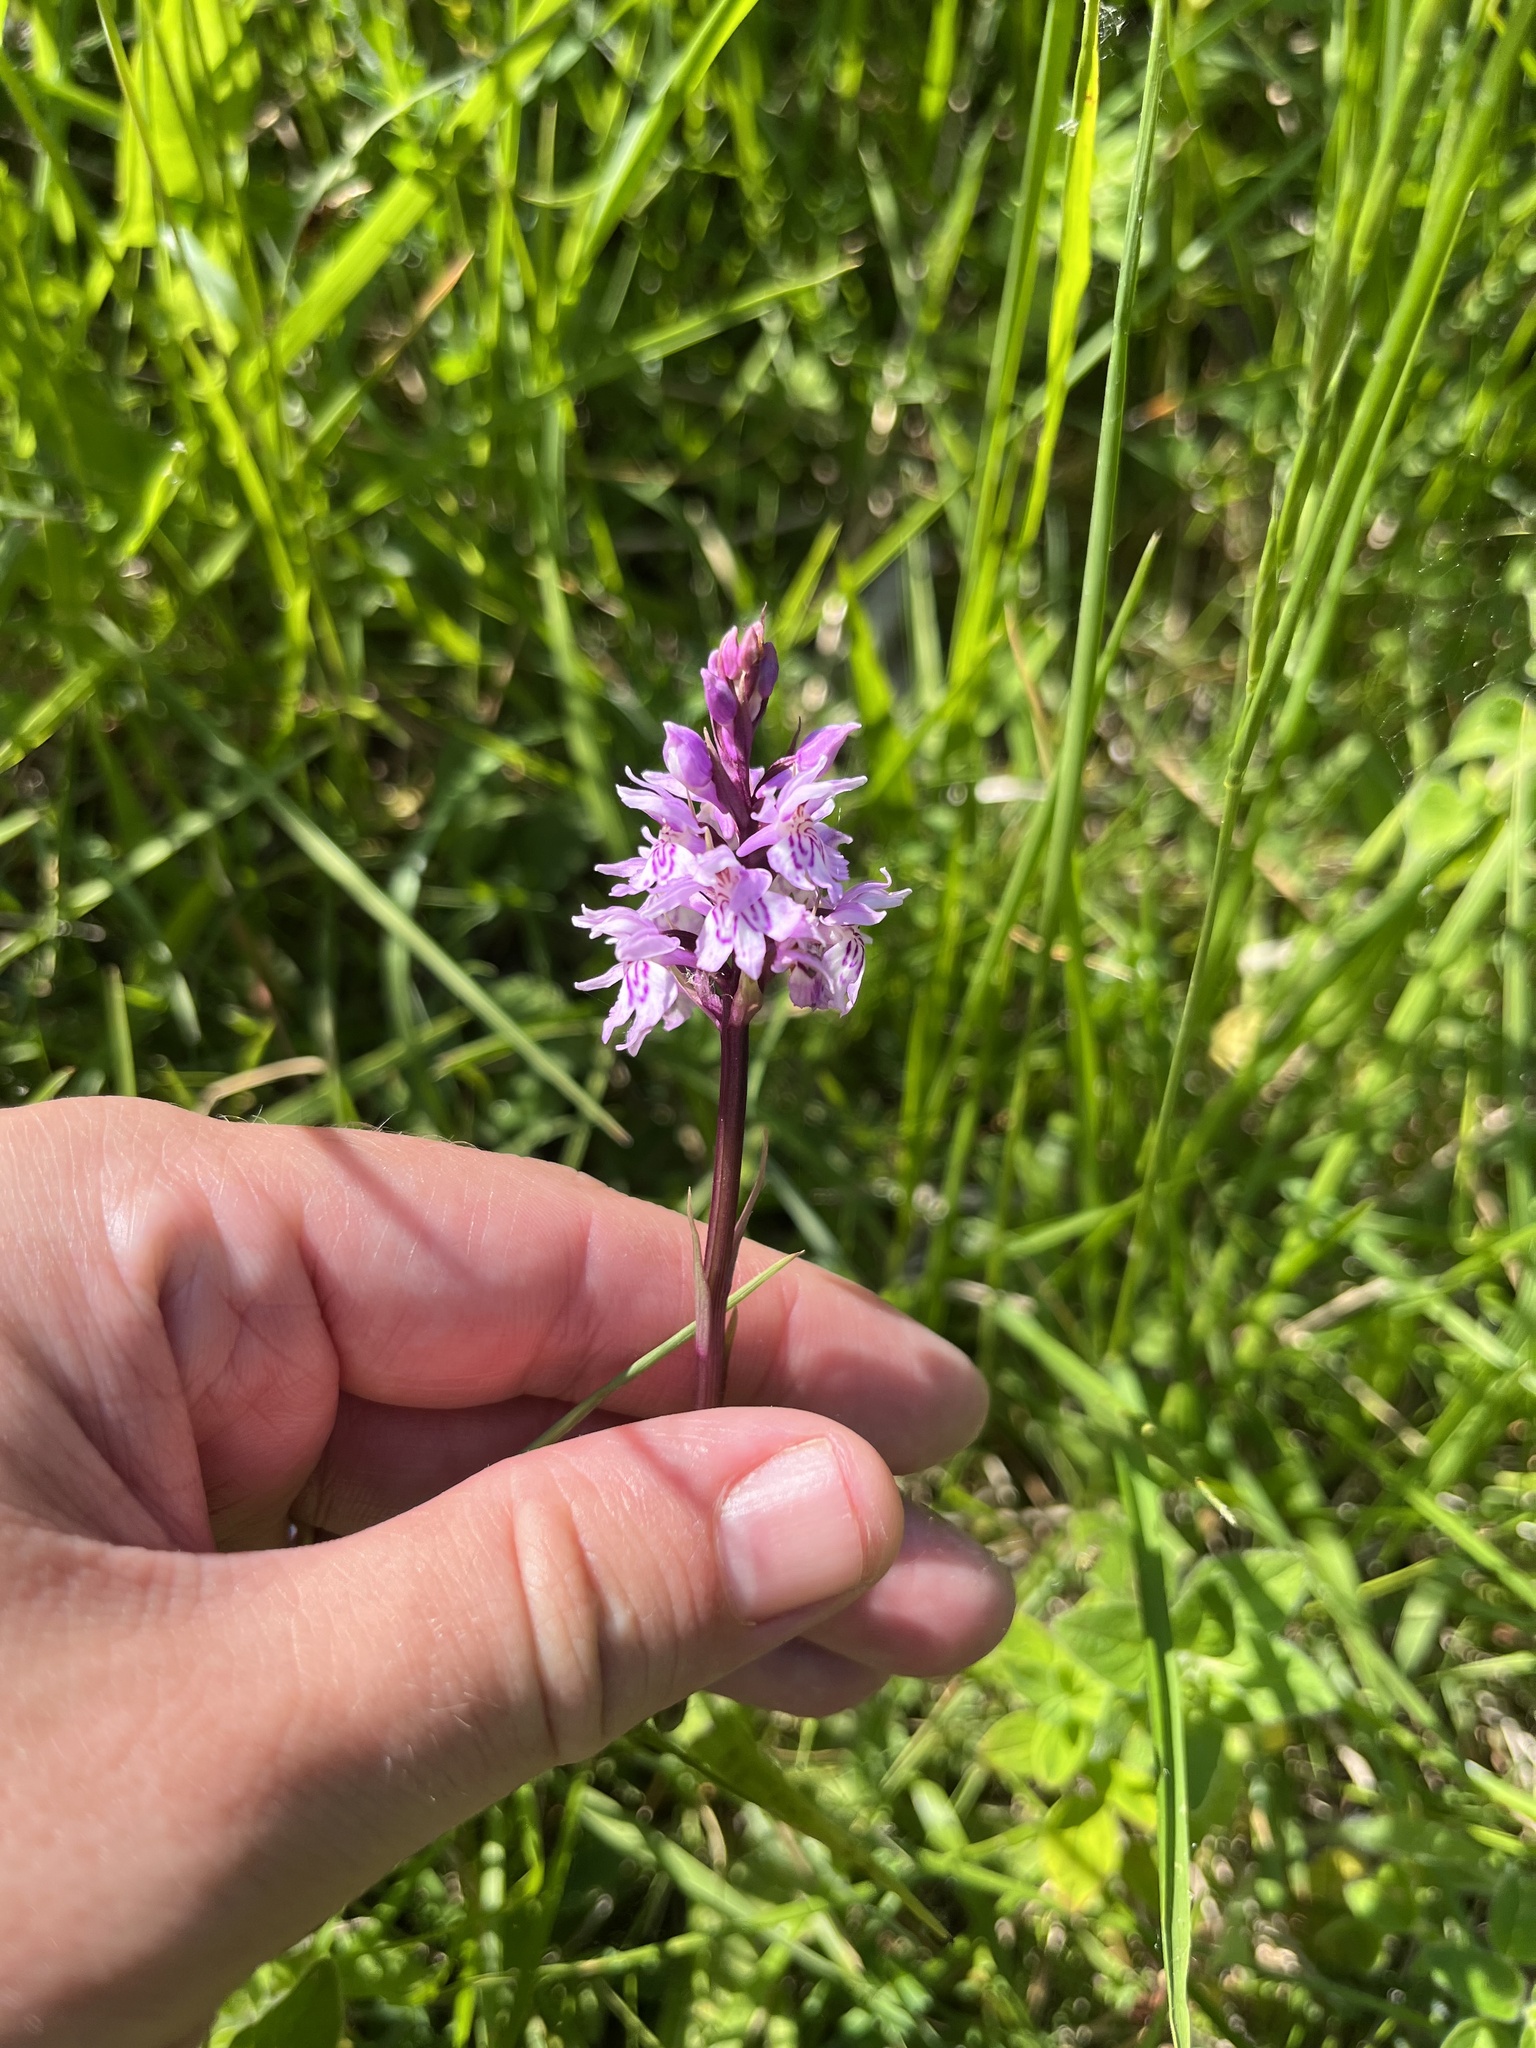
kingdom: Plantae
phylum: Tracheophyta
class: Liliopsida
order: Asparagales
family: Orchidaceae
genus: Dactylorhiza
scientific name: Dactylorhiza maculata
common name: Heath spotted-orchid
